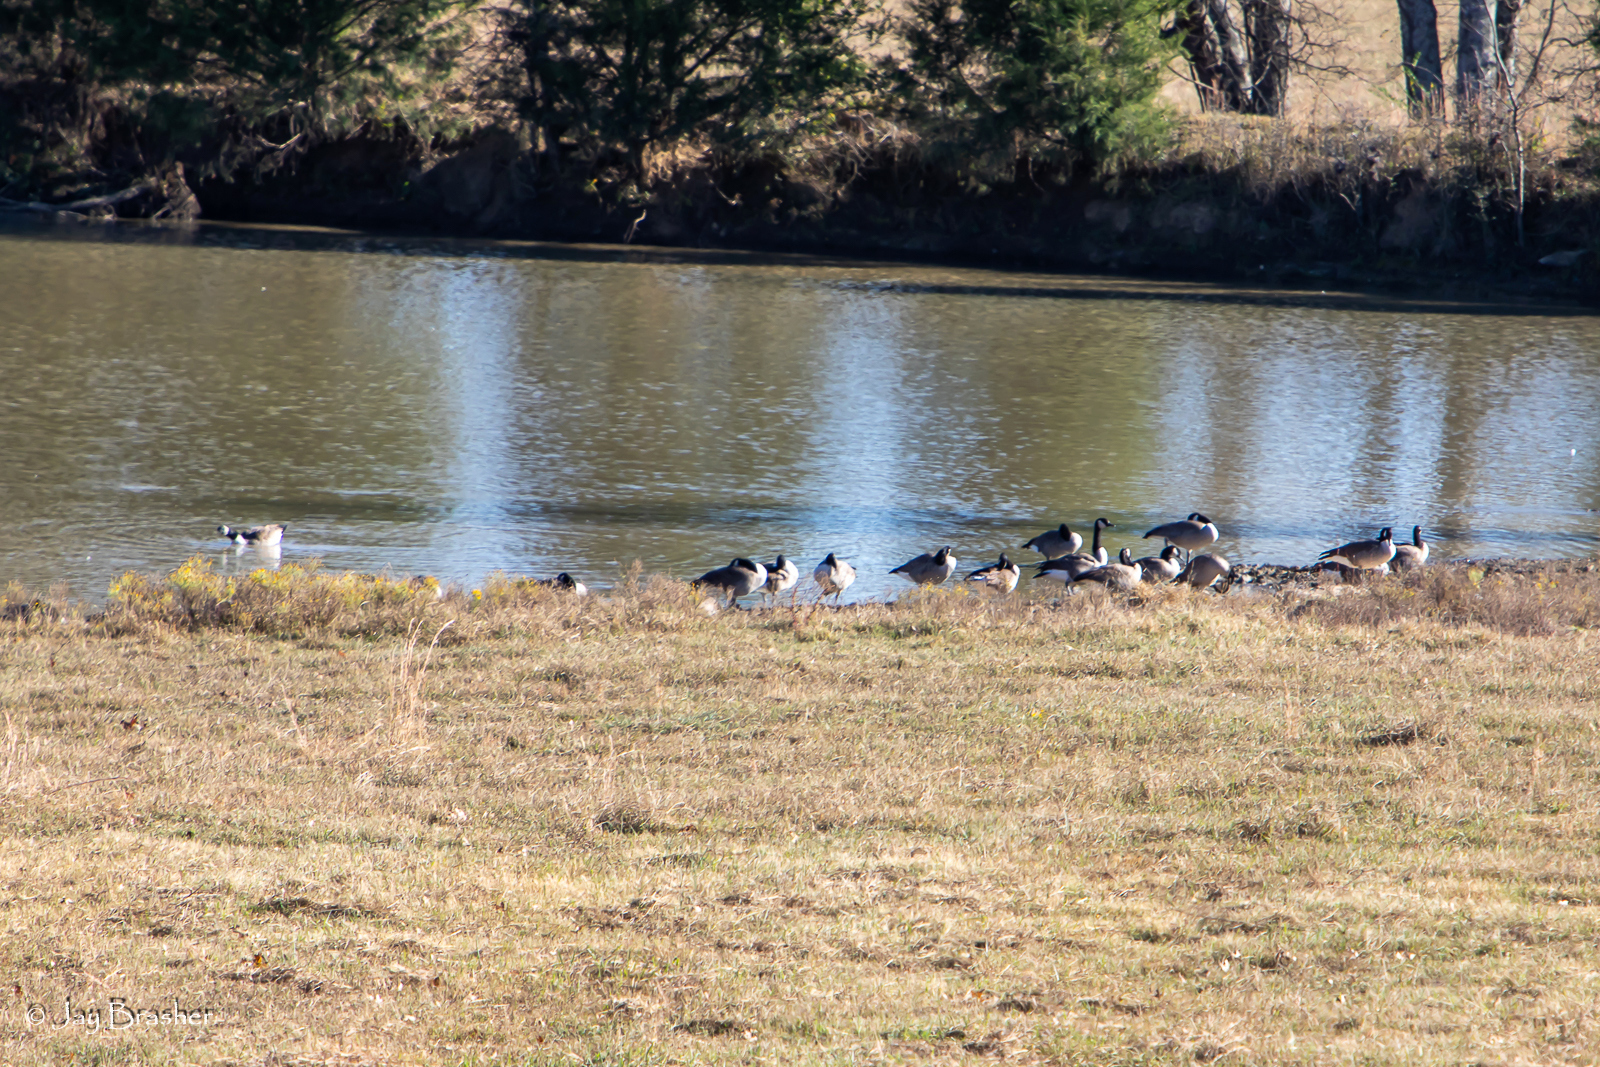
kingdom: Animalia
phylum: Chordata
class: Aves
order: Anseriformes
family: Anatidae
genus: Branta
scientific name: Branta canadensis
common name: Canada goose
